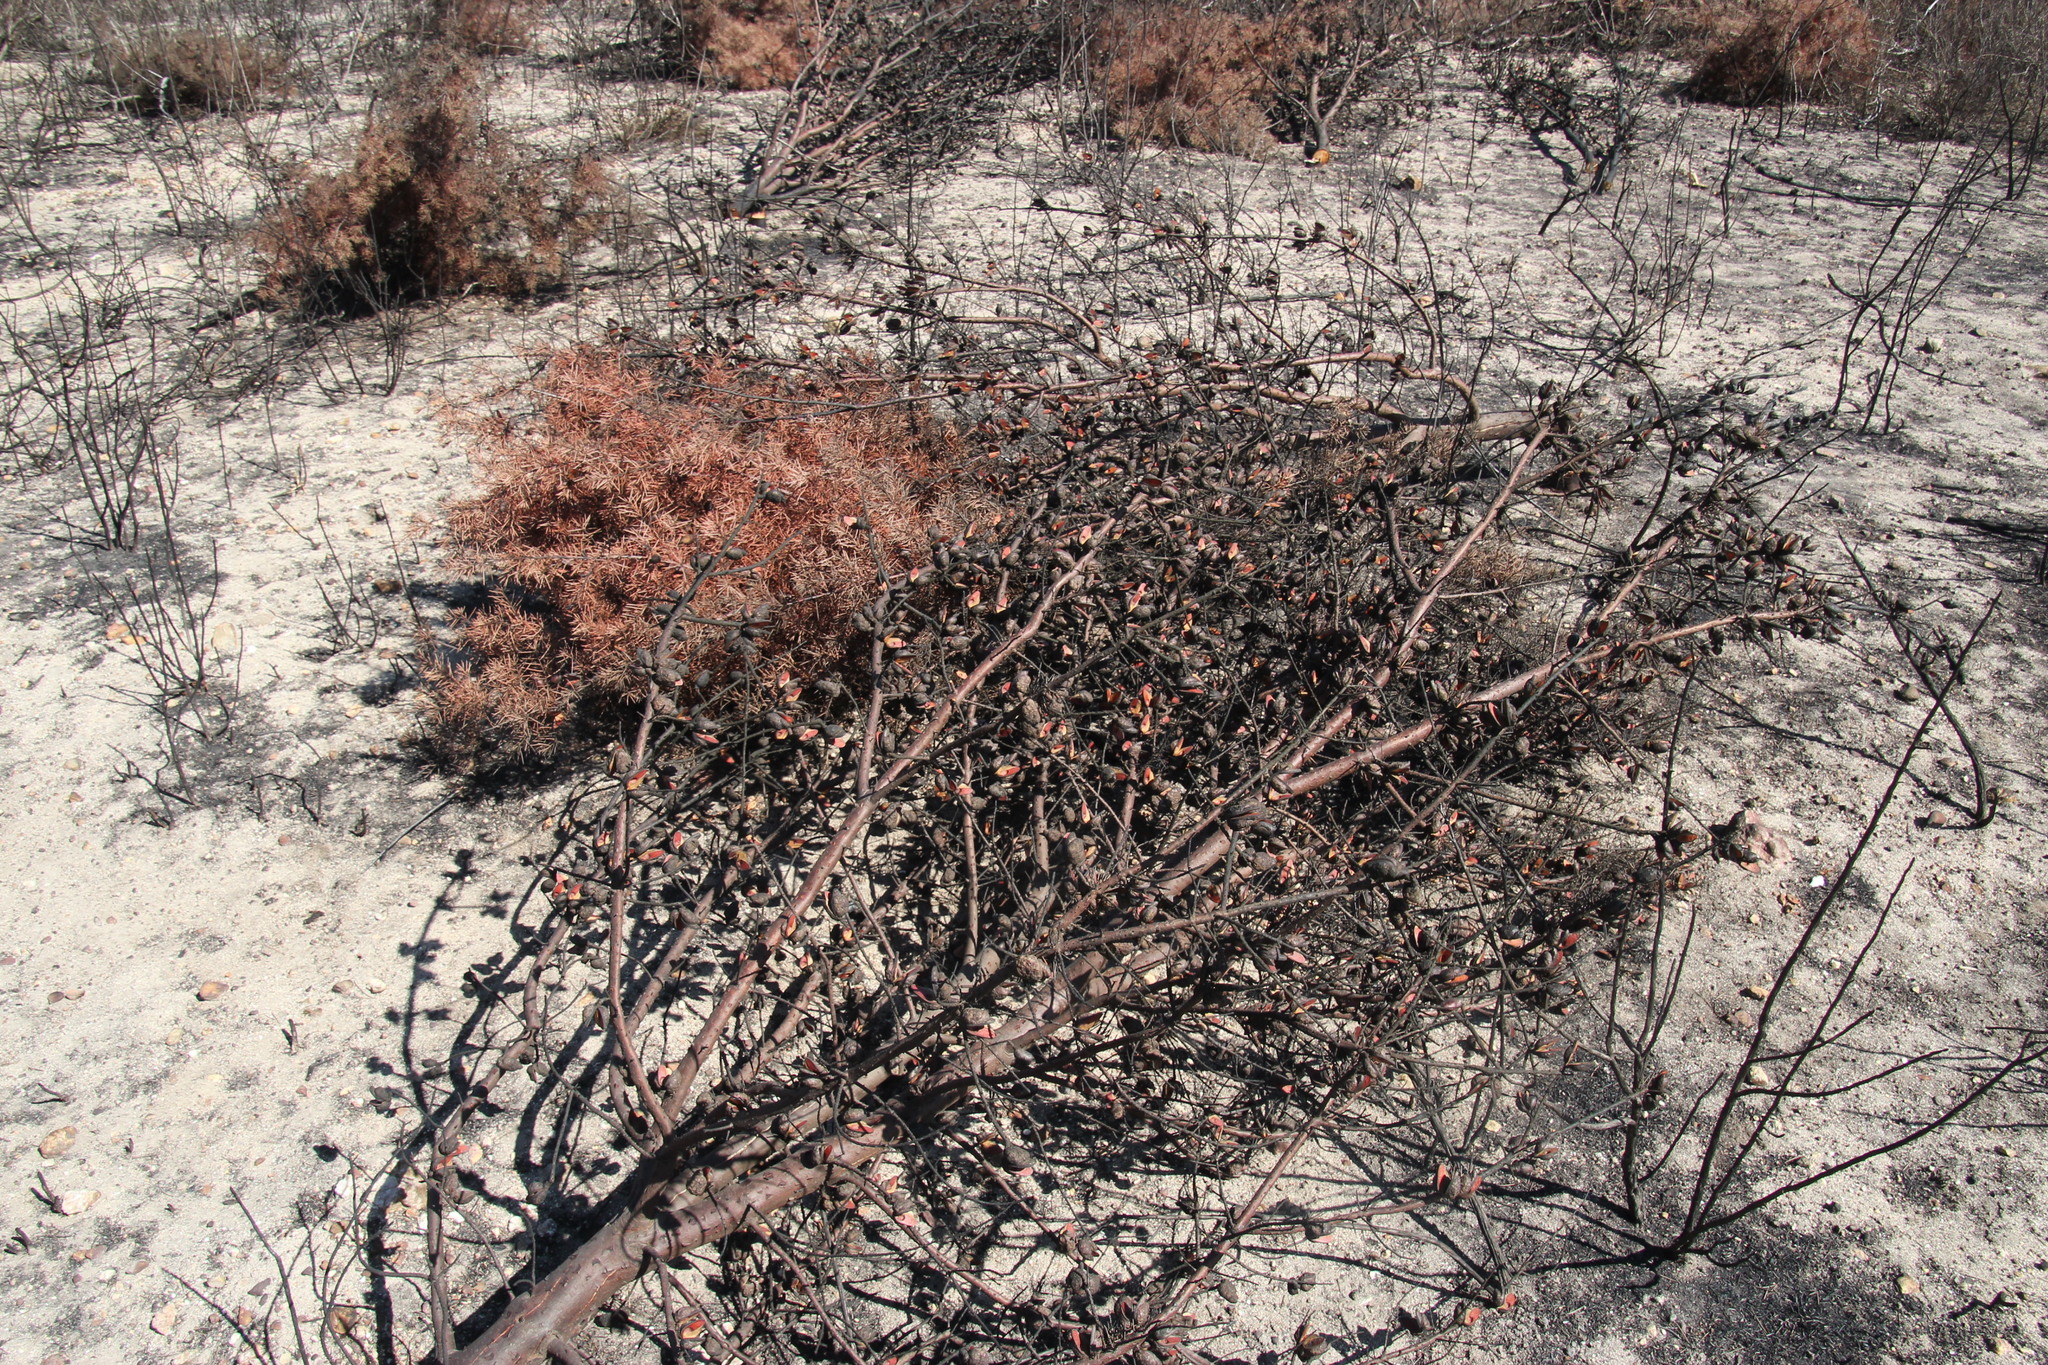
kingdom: Plantae
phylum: Tracheophyta
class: Magnoliopsida
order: Proteales
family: Proteaceae
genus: Hakea
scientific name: Hakea sericea
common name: Needle bush
